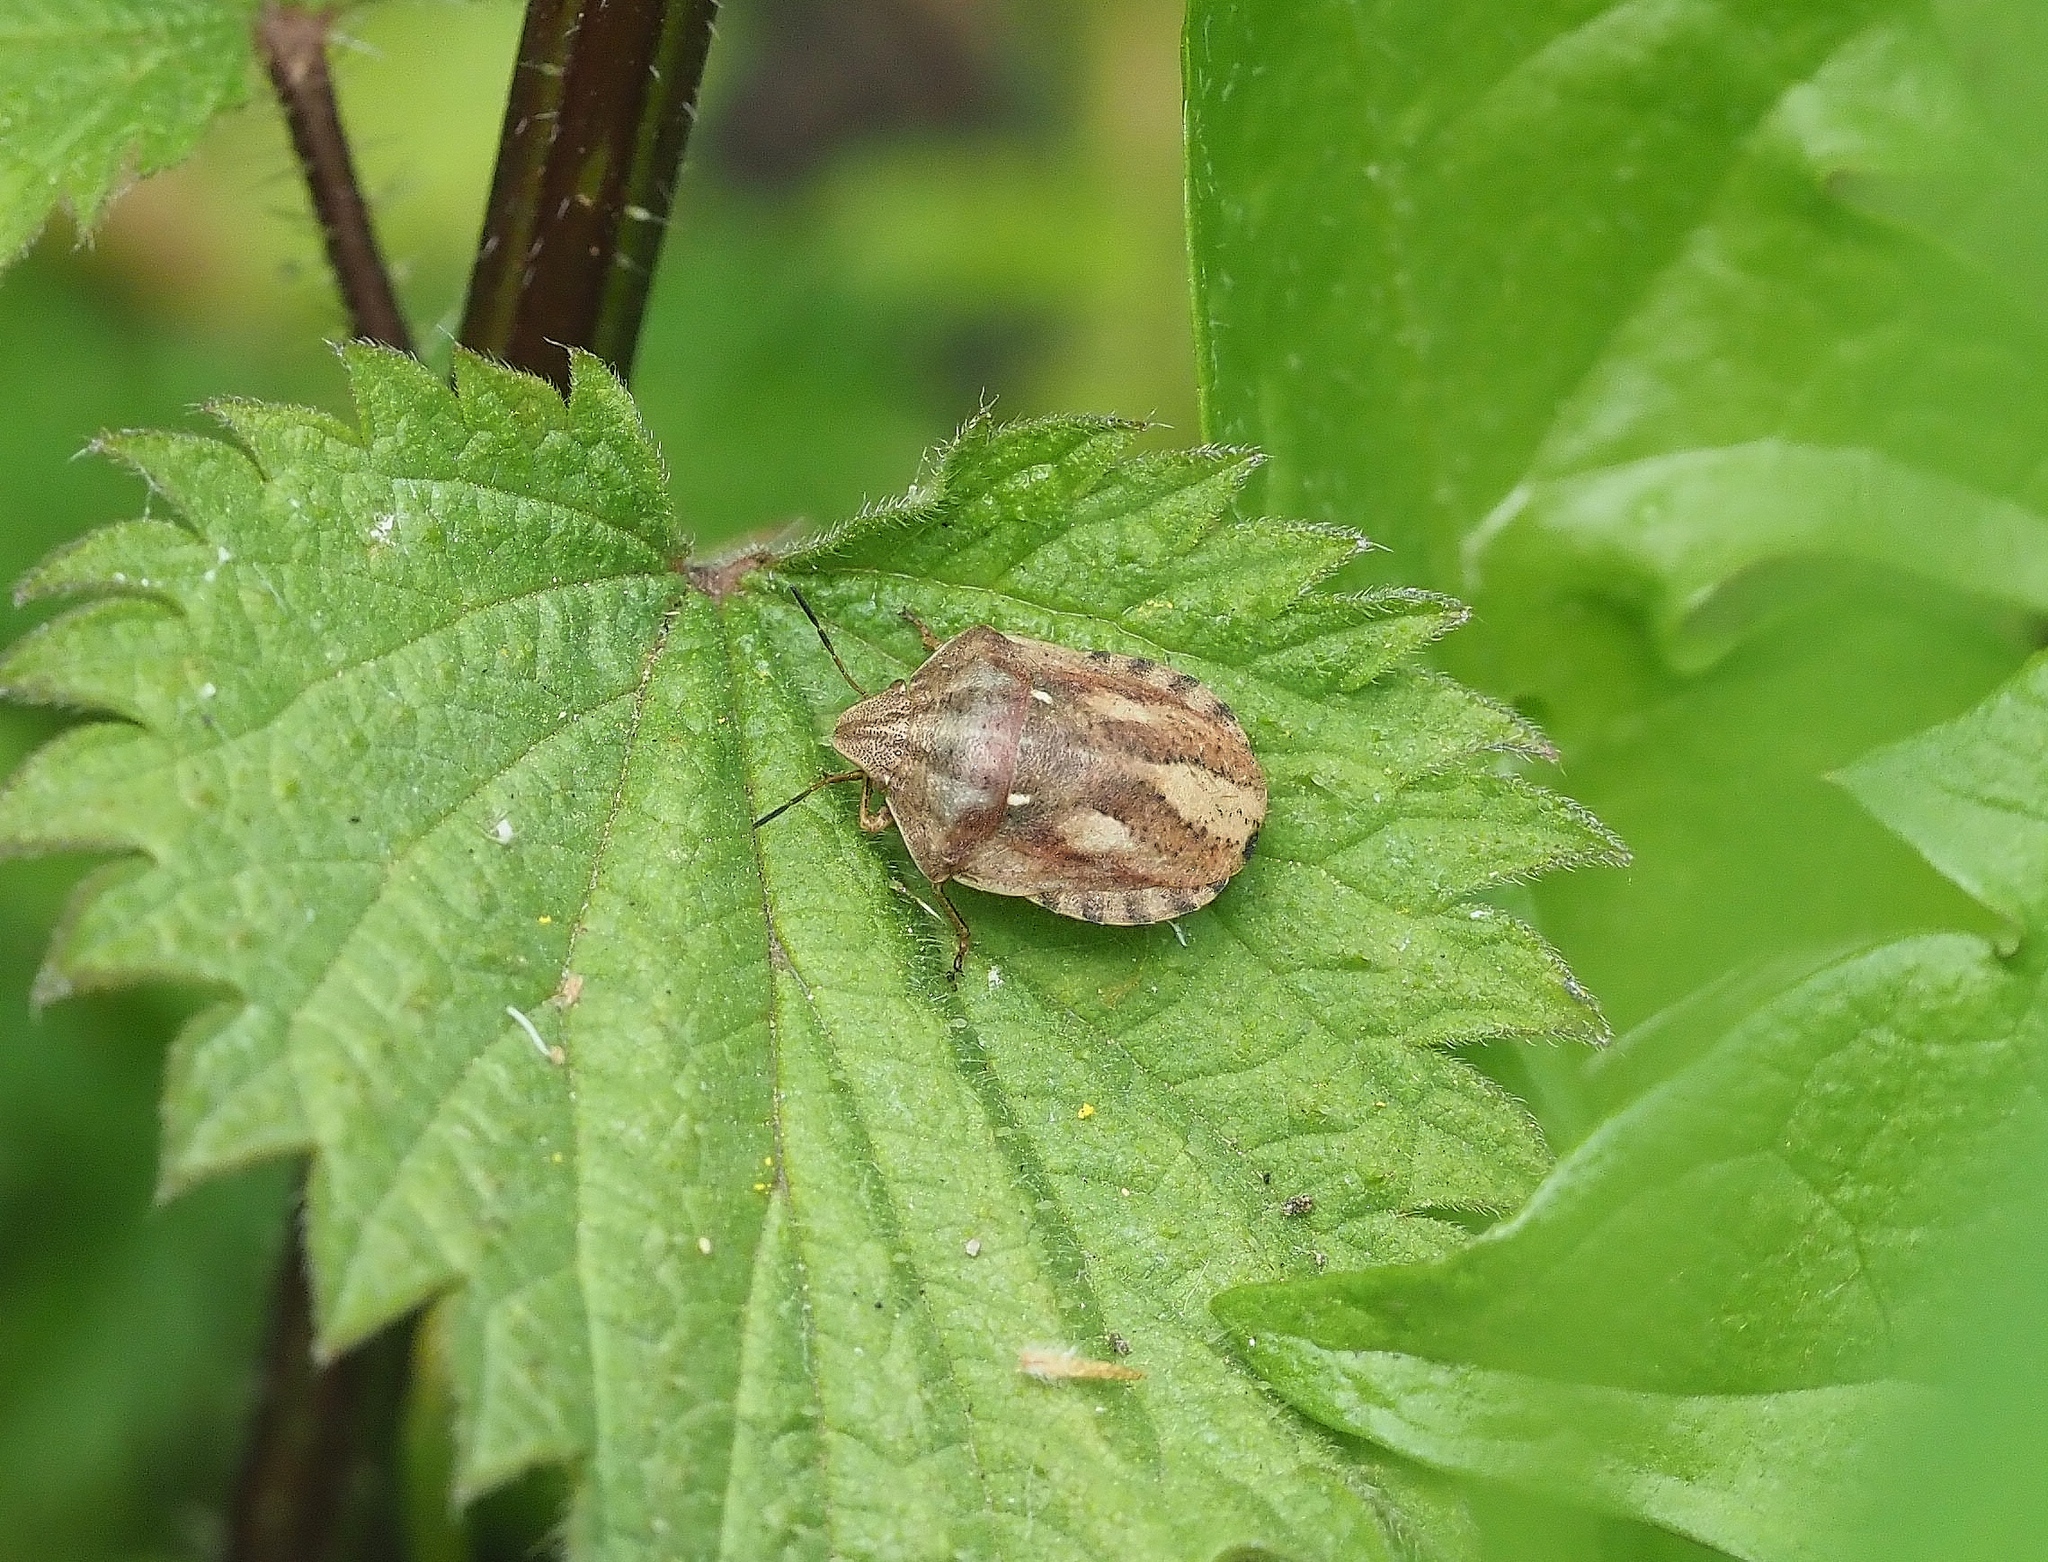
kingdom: Animalia
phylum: Arthropoda
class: Insecta
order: Hemiptera
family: Scutelleridae
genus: Eurygaster
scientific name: Eurygaster testudinaria
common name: Tortoise bug
